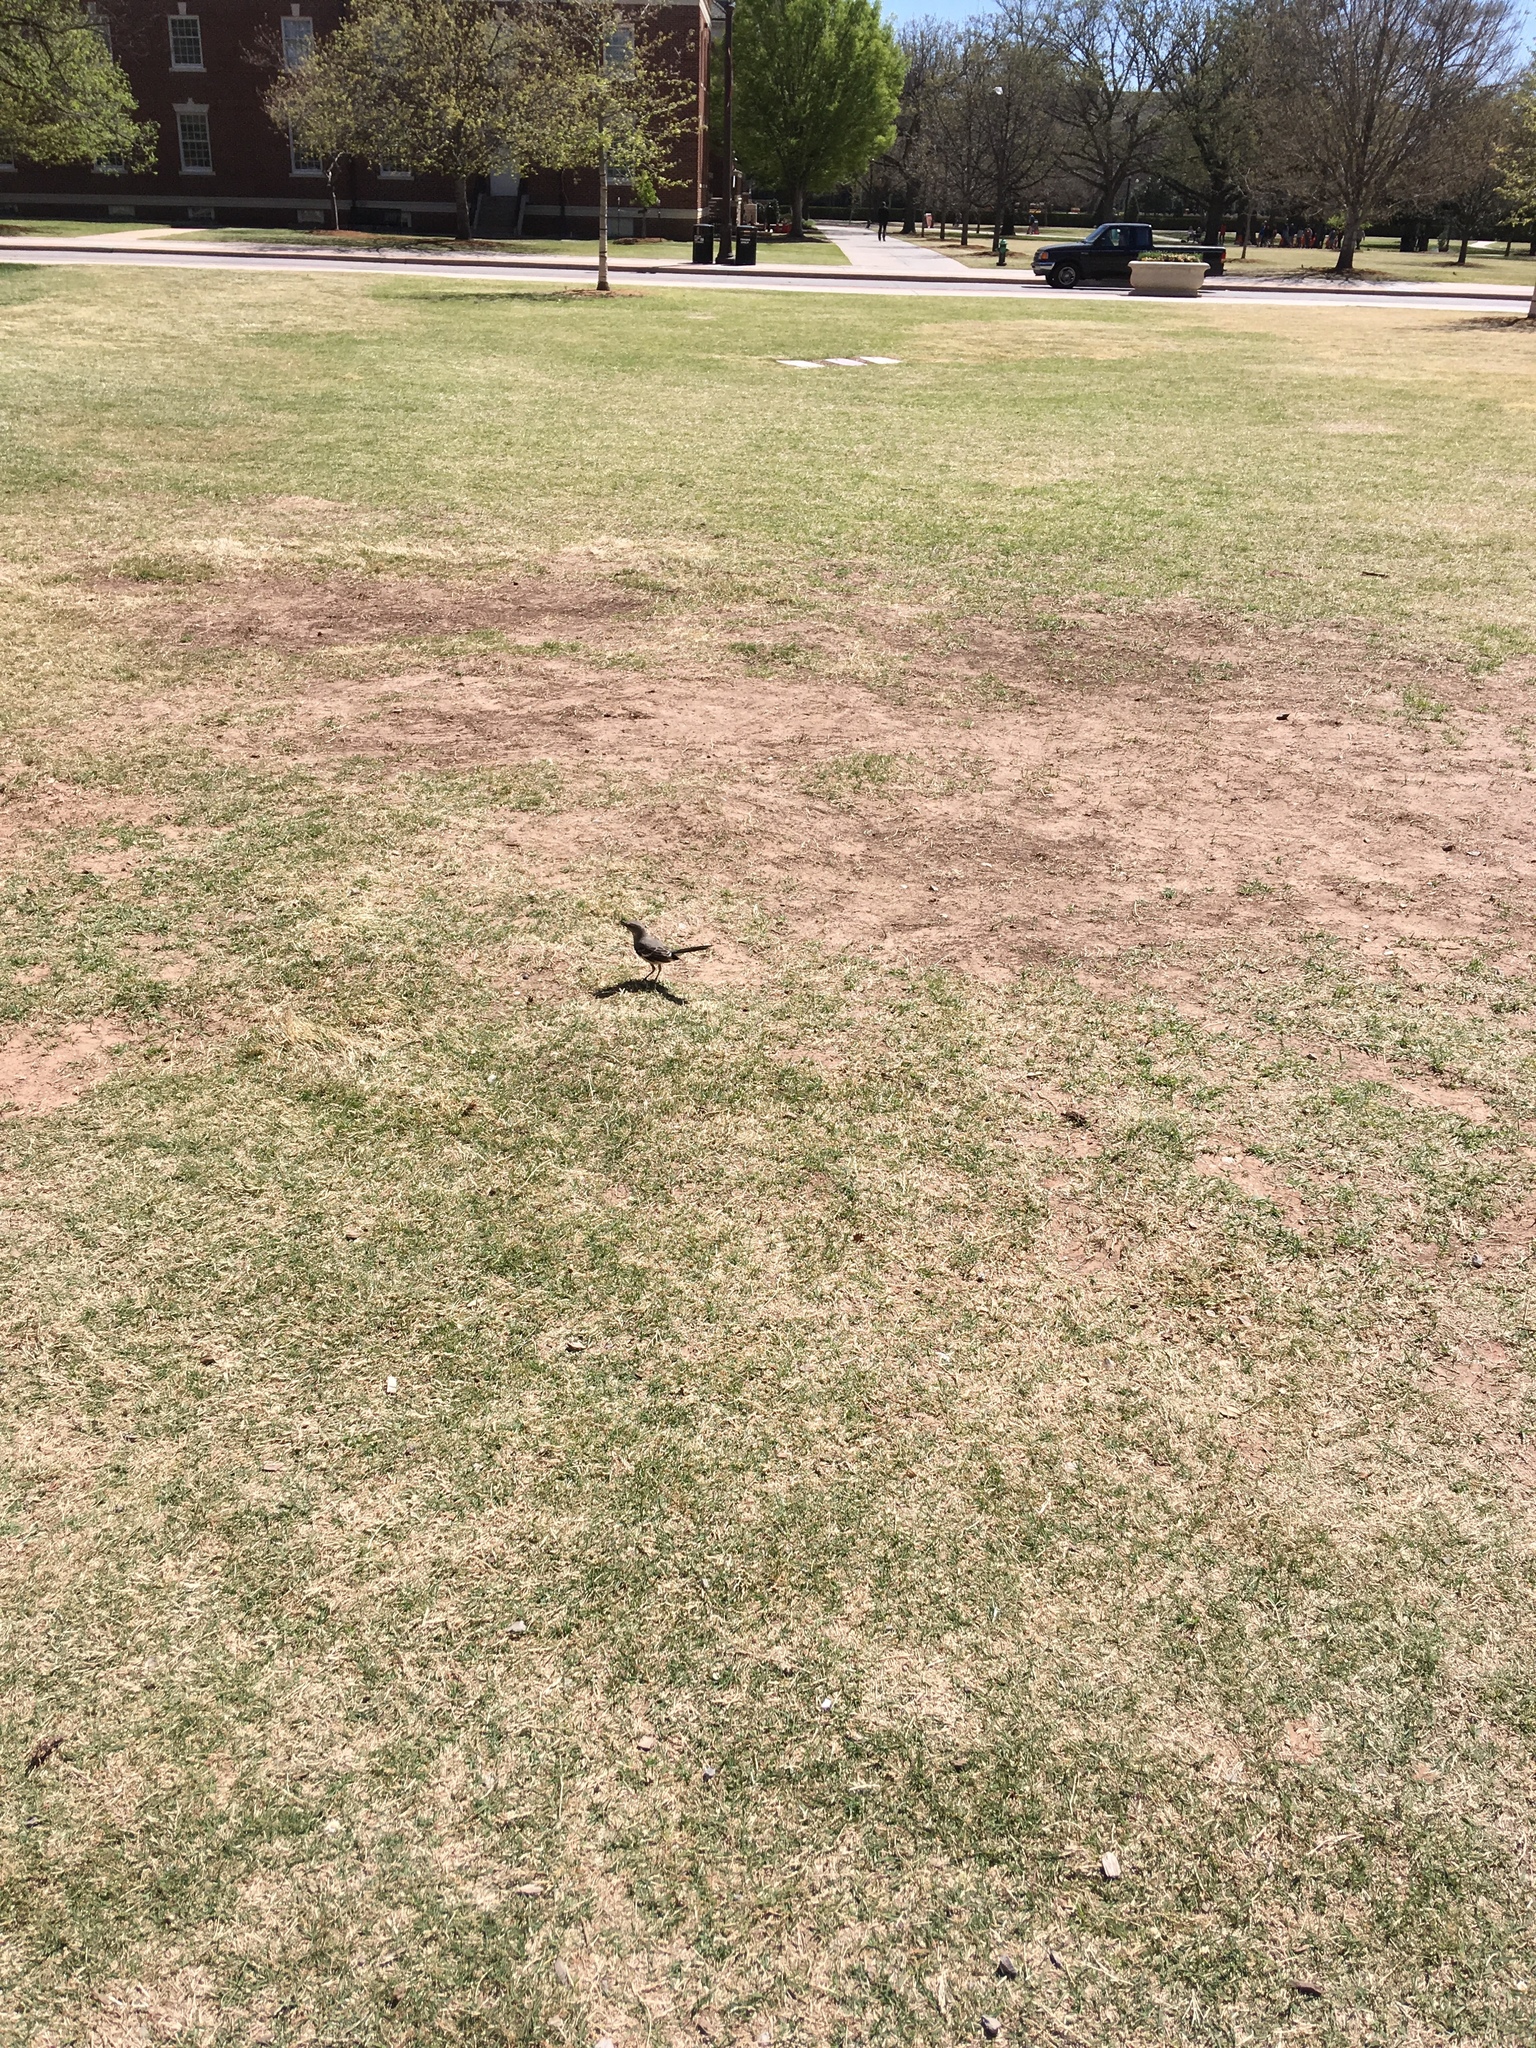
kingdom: Animalia
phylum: Chordata
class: Aves
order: Passeriformes
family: Mimidae
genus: Mimus
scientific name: Mimus polyglottos
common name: Northern mockingbird
